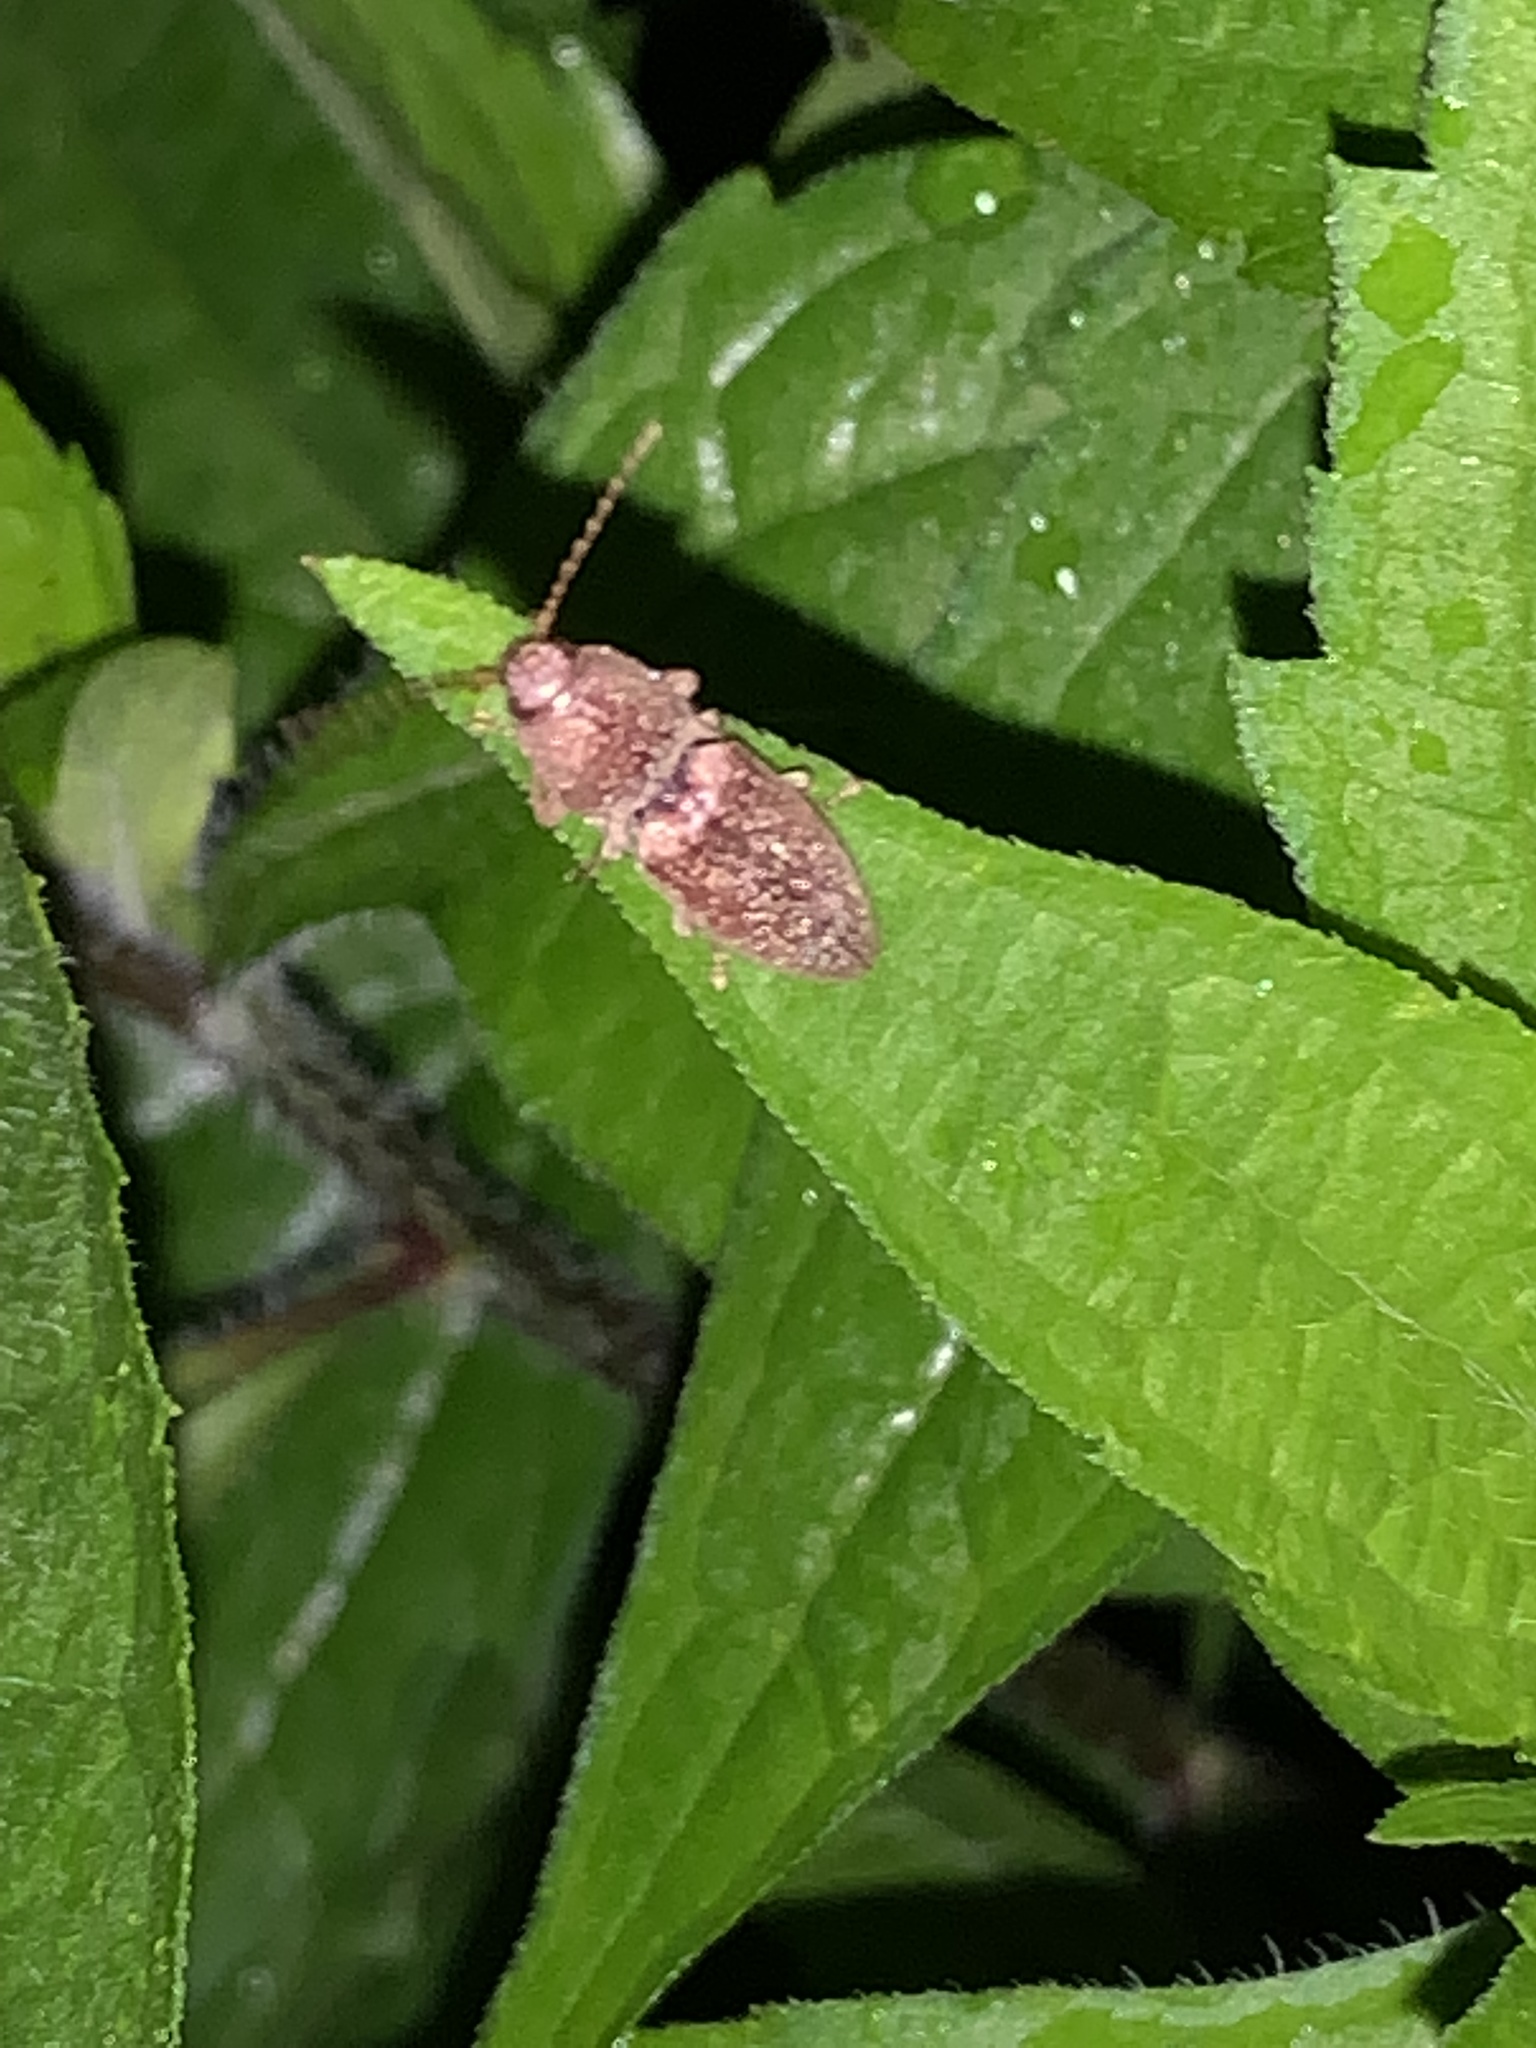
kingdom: Animalia
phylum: Arthropoda
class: Insecta
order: Coleoptera
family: Elateridae
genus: Monocrepidius
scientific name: Monocrepidius lividus
